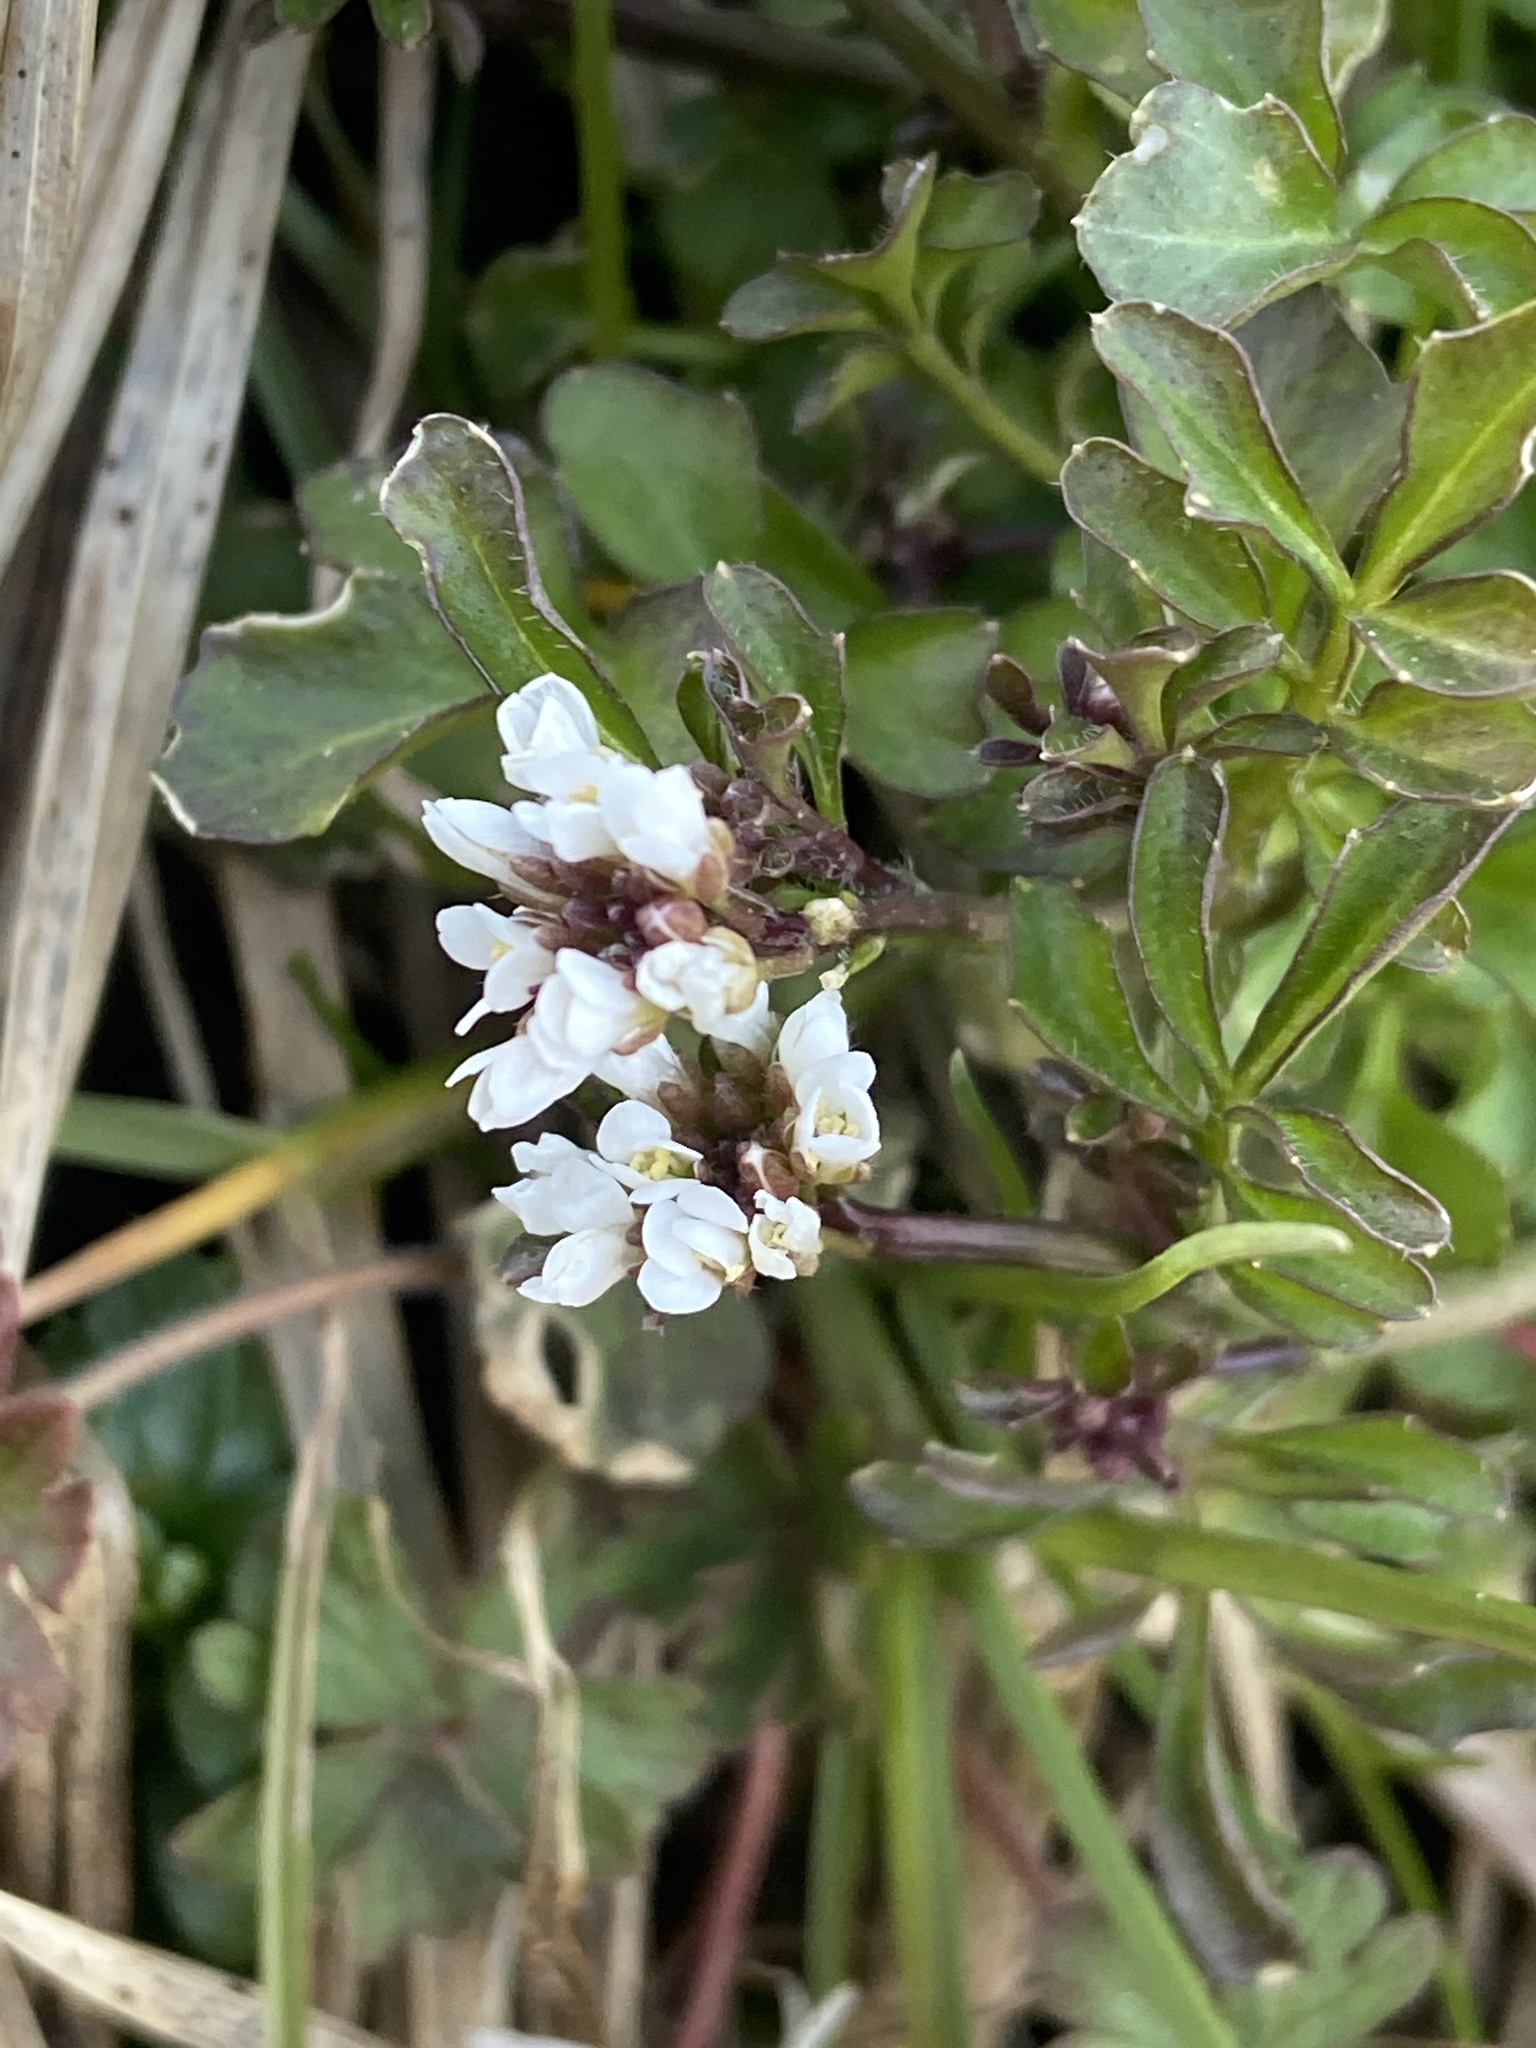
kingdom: Plantae
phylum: Tracheophyta
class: Magnoliopsida
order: Brassicales
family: Brassicaceae
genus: Cardamine
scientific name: Cardamine hirsuta
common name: Hairy bittercress
